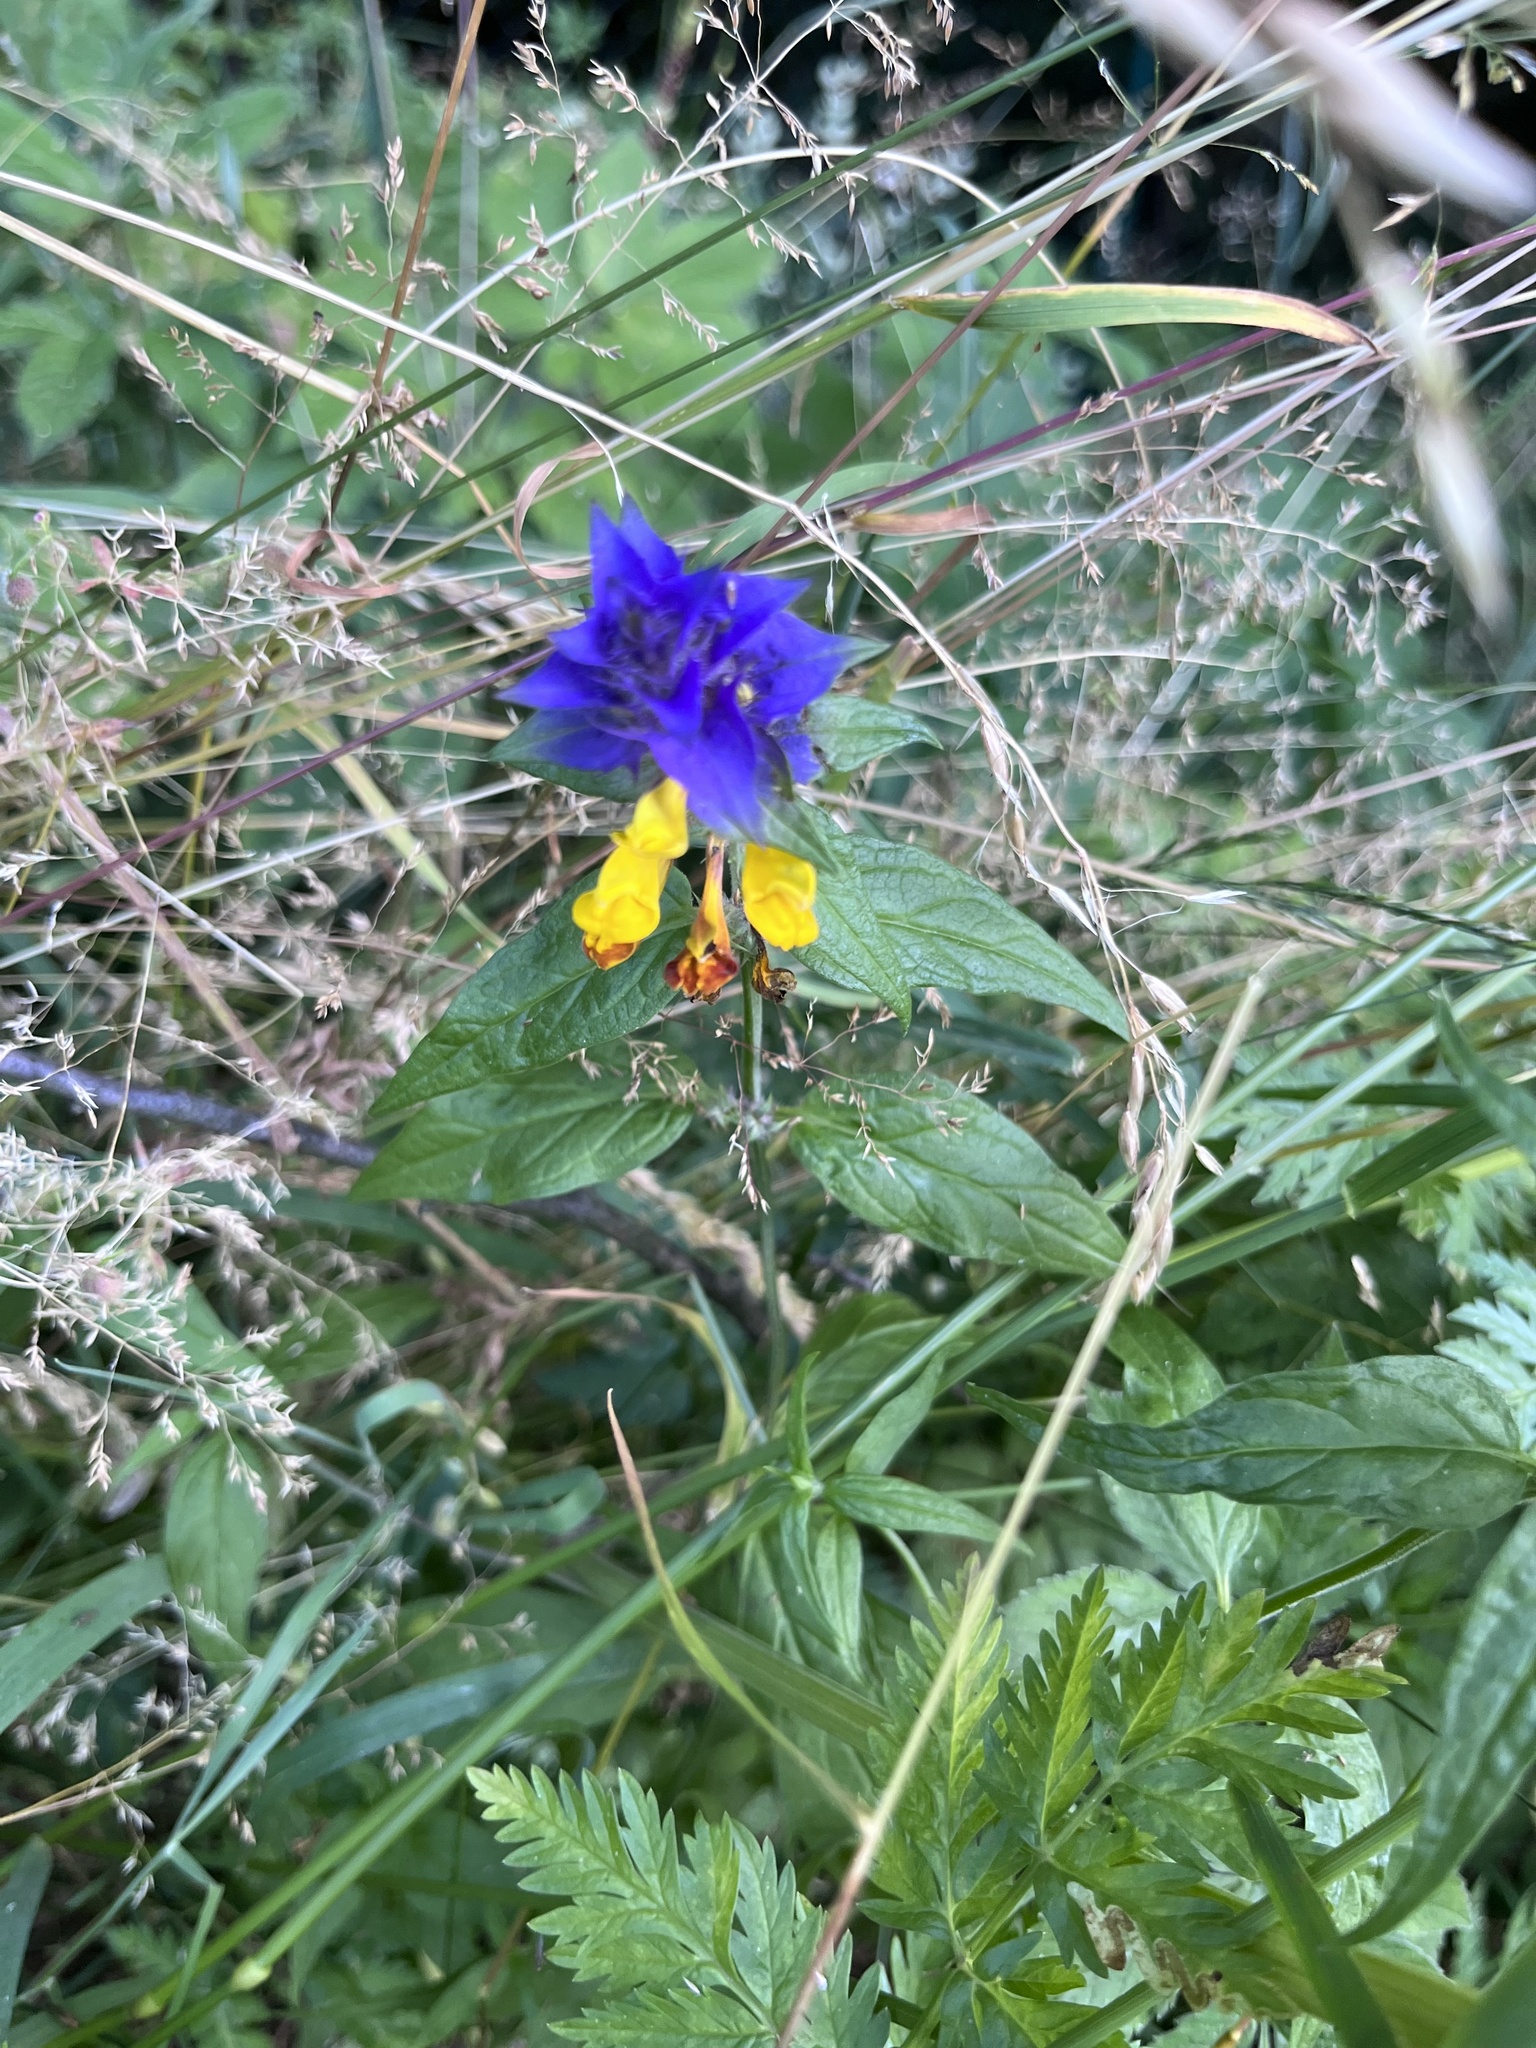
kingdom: Plantae
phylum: Tracheophyta
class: Magnoliopsida
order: Lamiales
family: Orobanchaceae
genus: Melampyrum
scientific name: Melampyrum nemorosum
